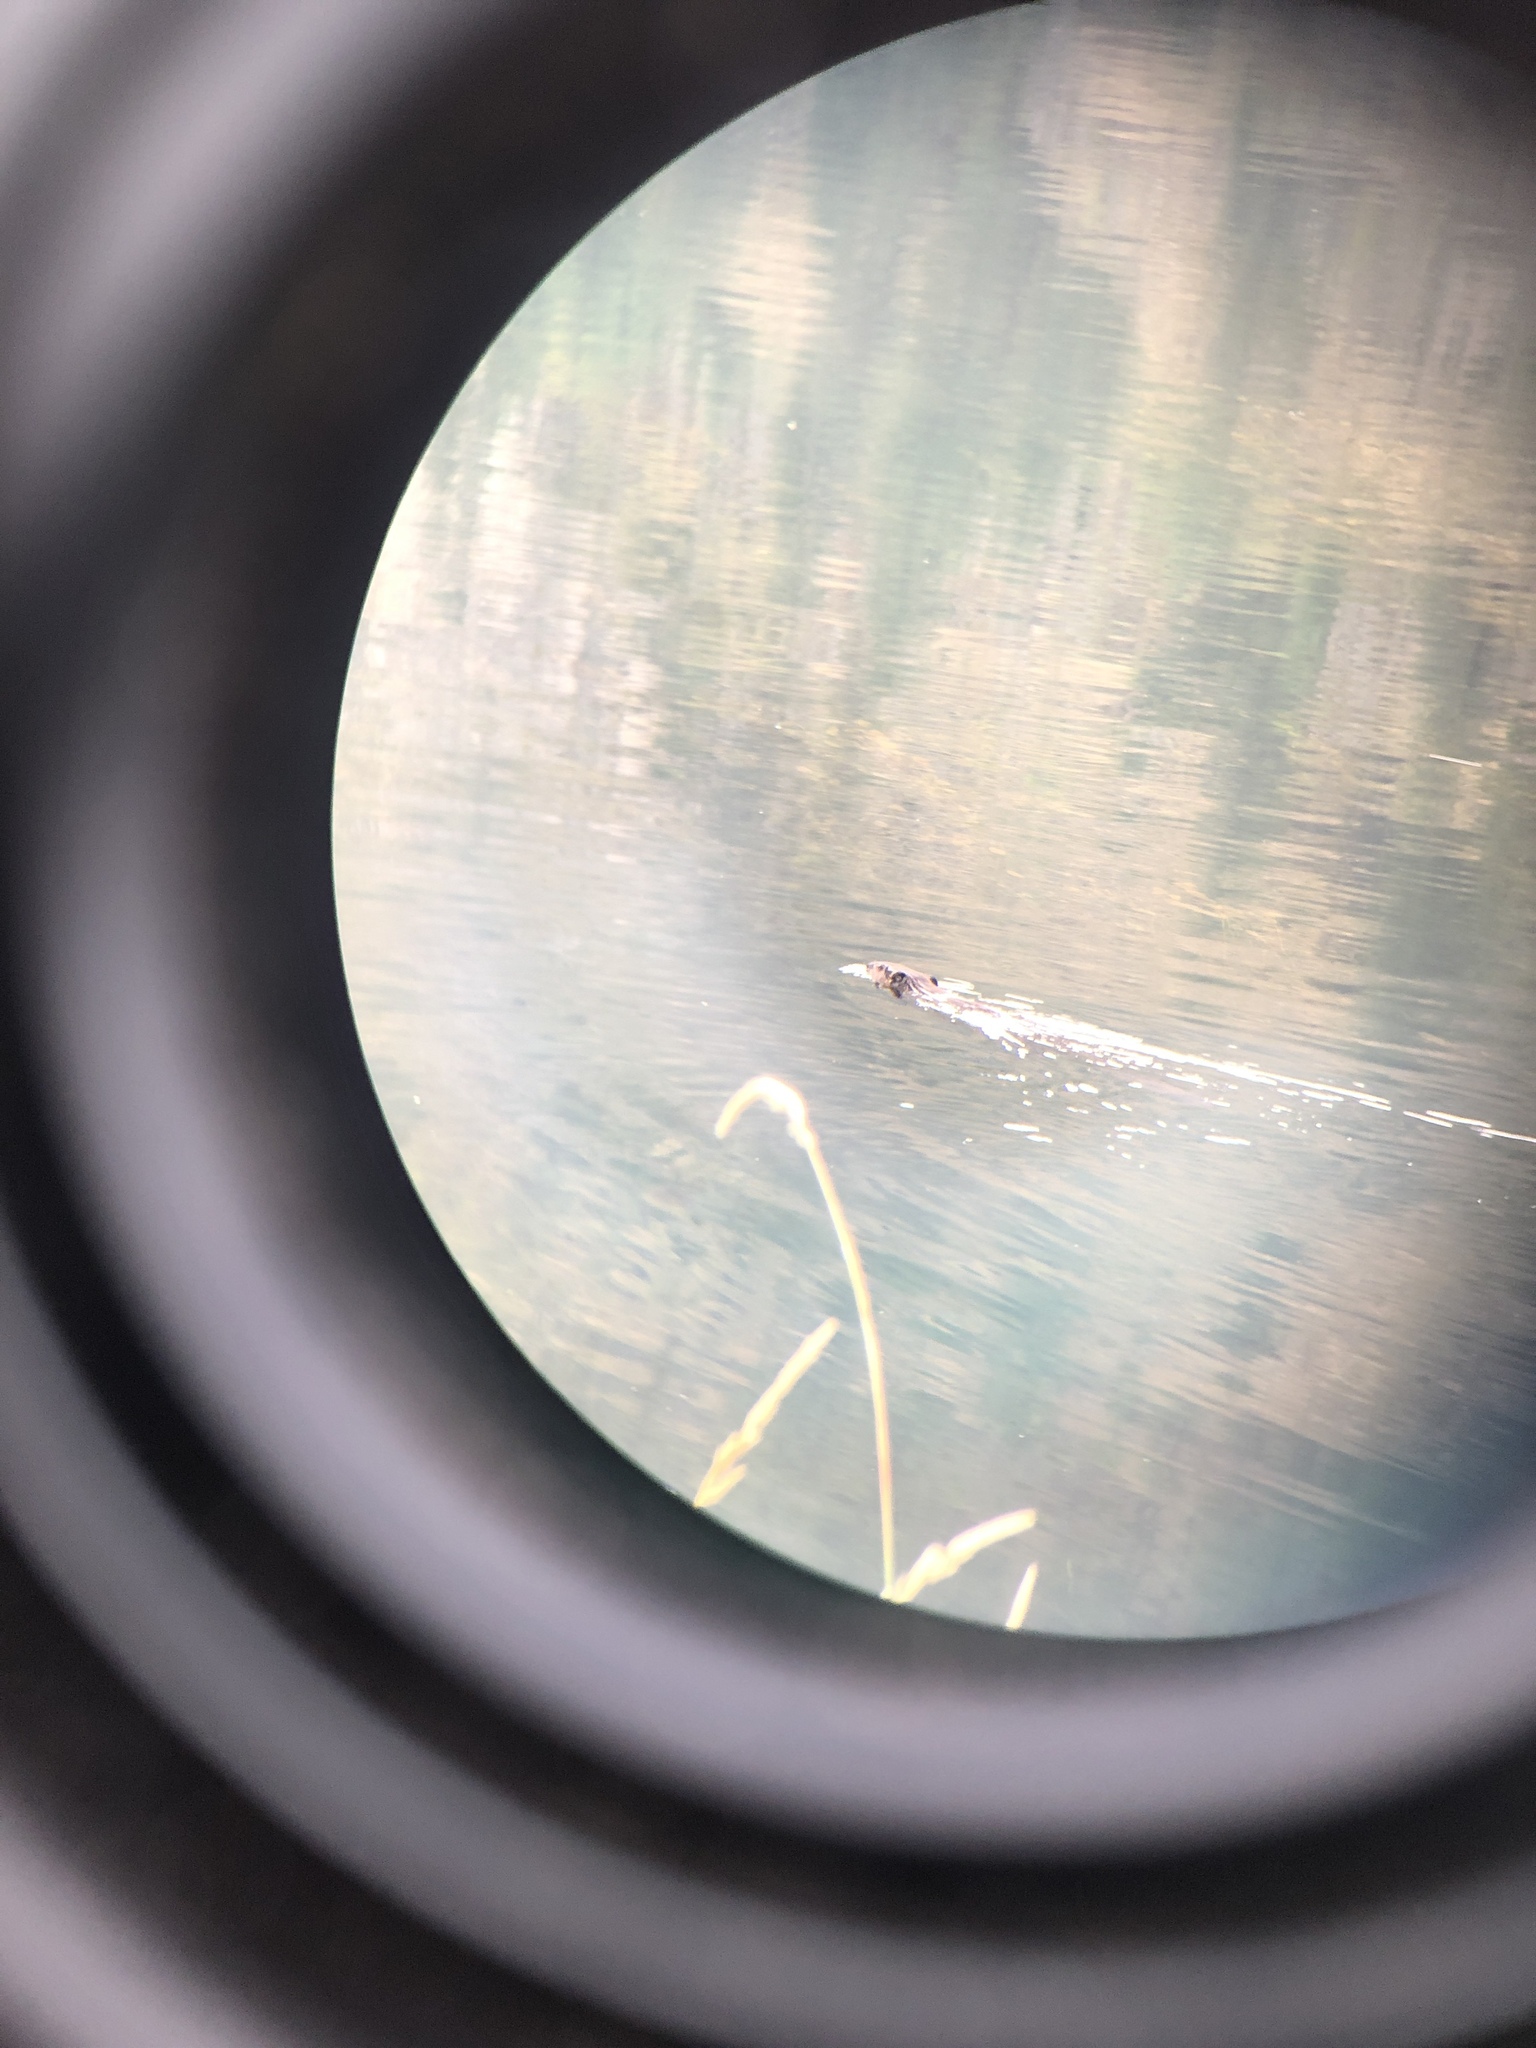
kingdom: Animalia
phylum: Chordata
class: Mammalia
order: Rodentia
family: Castoridae
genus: Castor
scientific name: Castor canadensis
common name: American beaver
